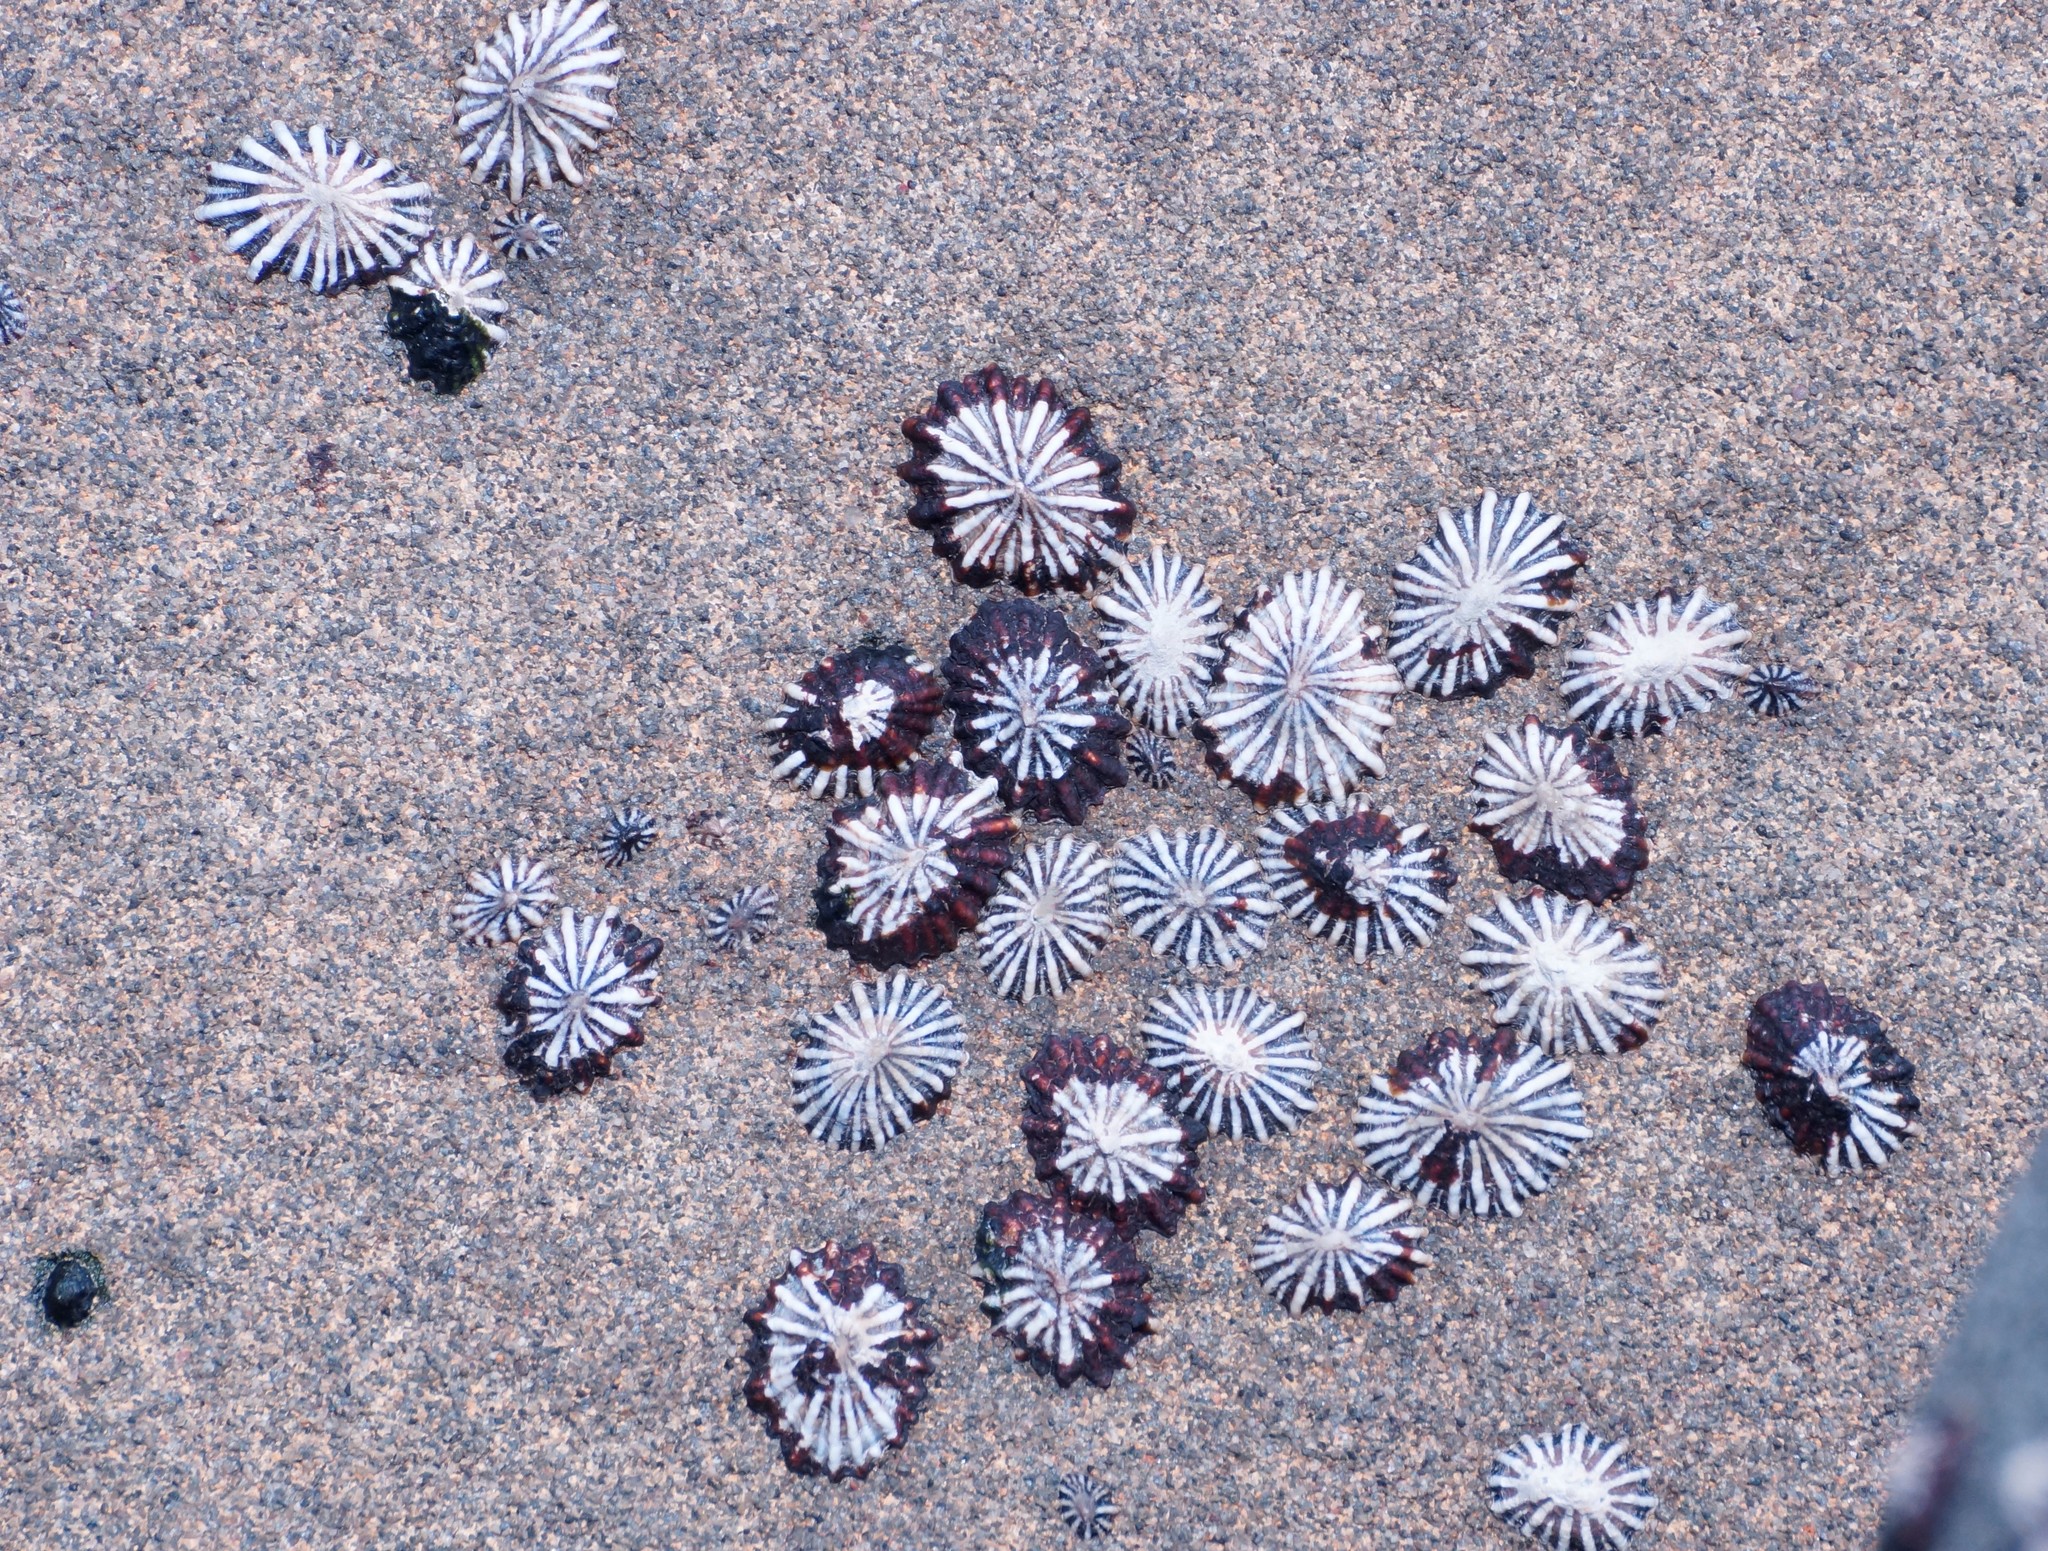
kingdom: Animalia
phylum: Mollusca
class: Gastropoda
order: Siphonariida
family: Siphonariidae
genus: Siphonaria
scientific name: Siphonaria diemenensis
